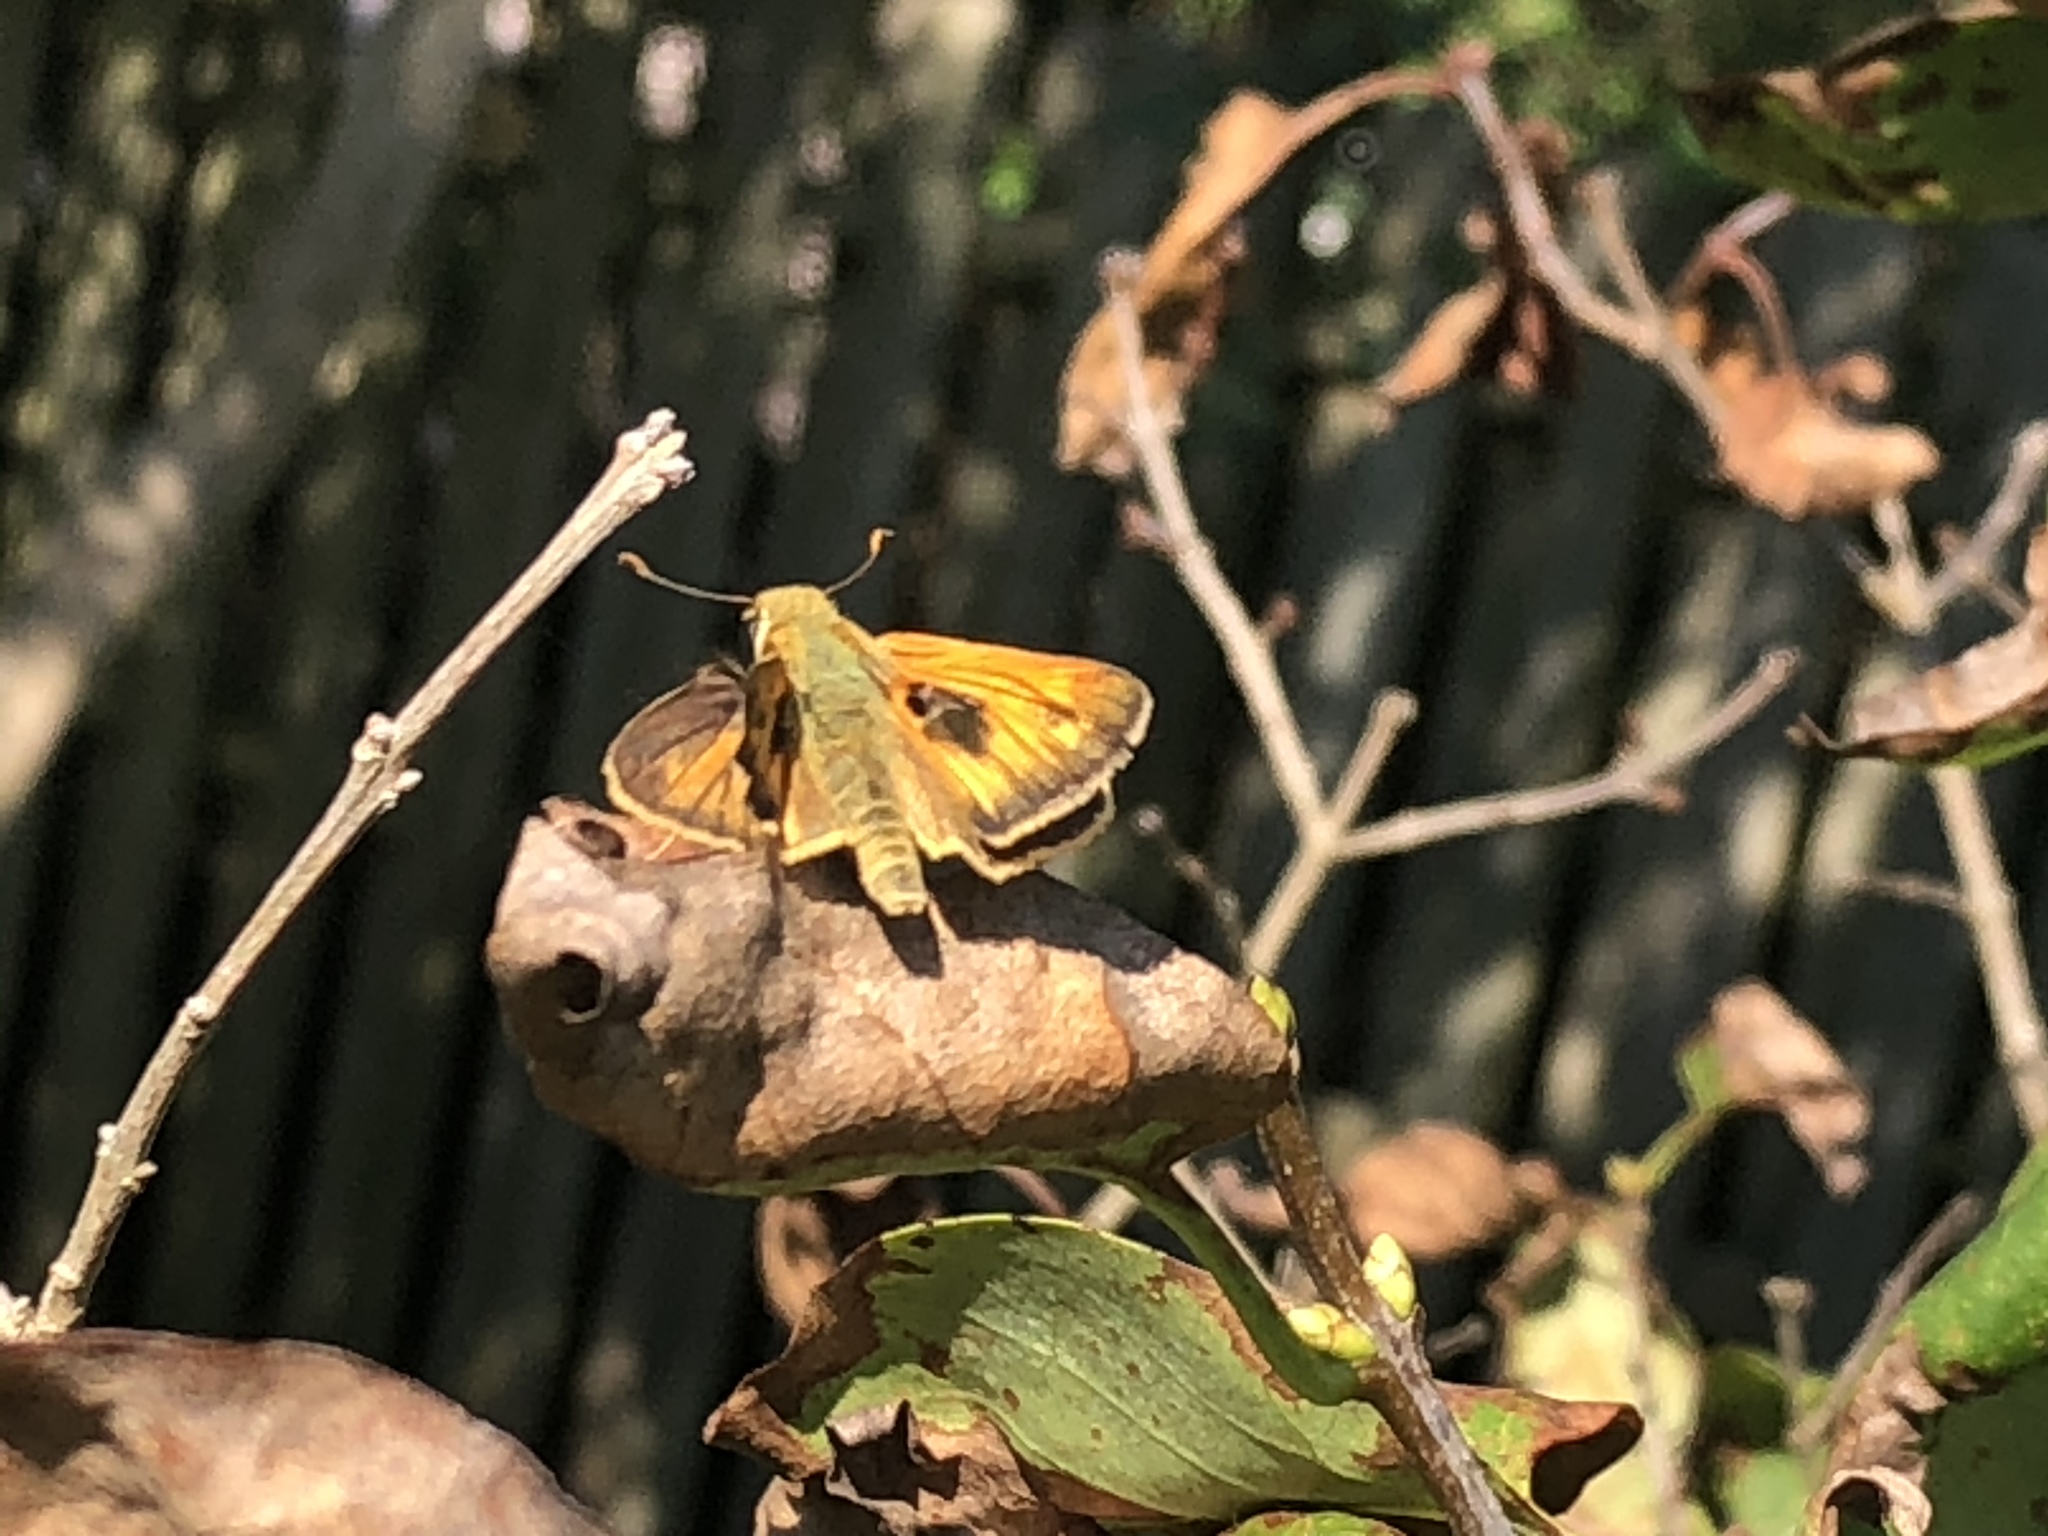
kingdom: Animalia
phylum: Arthropoda
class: Insecta
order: Lepidoptera
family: Hesperiidae
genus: Atalopedes
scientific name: Atalopedes
